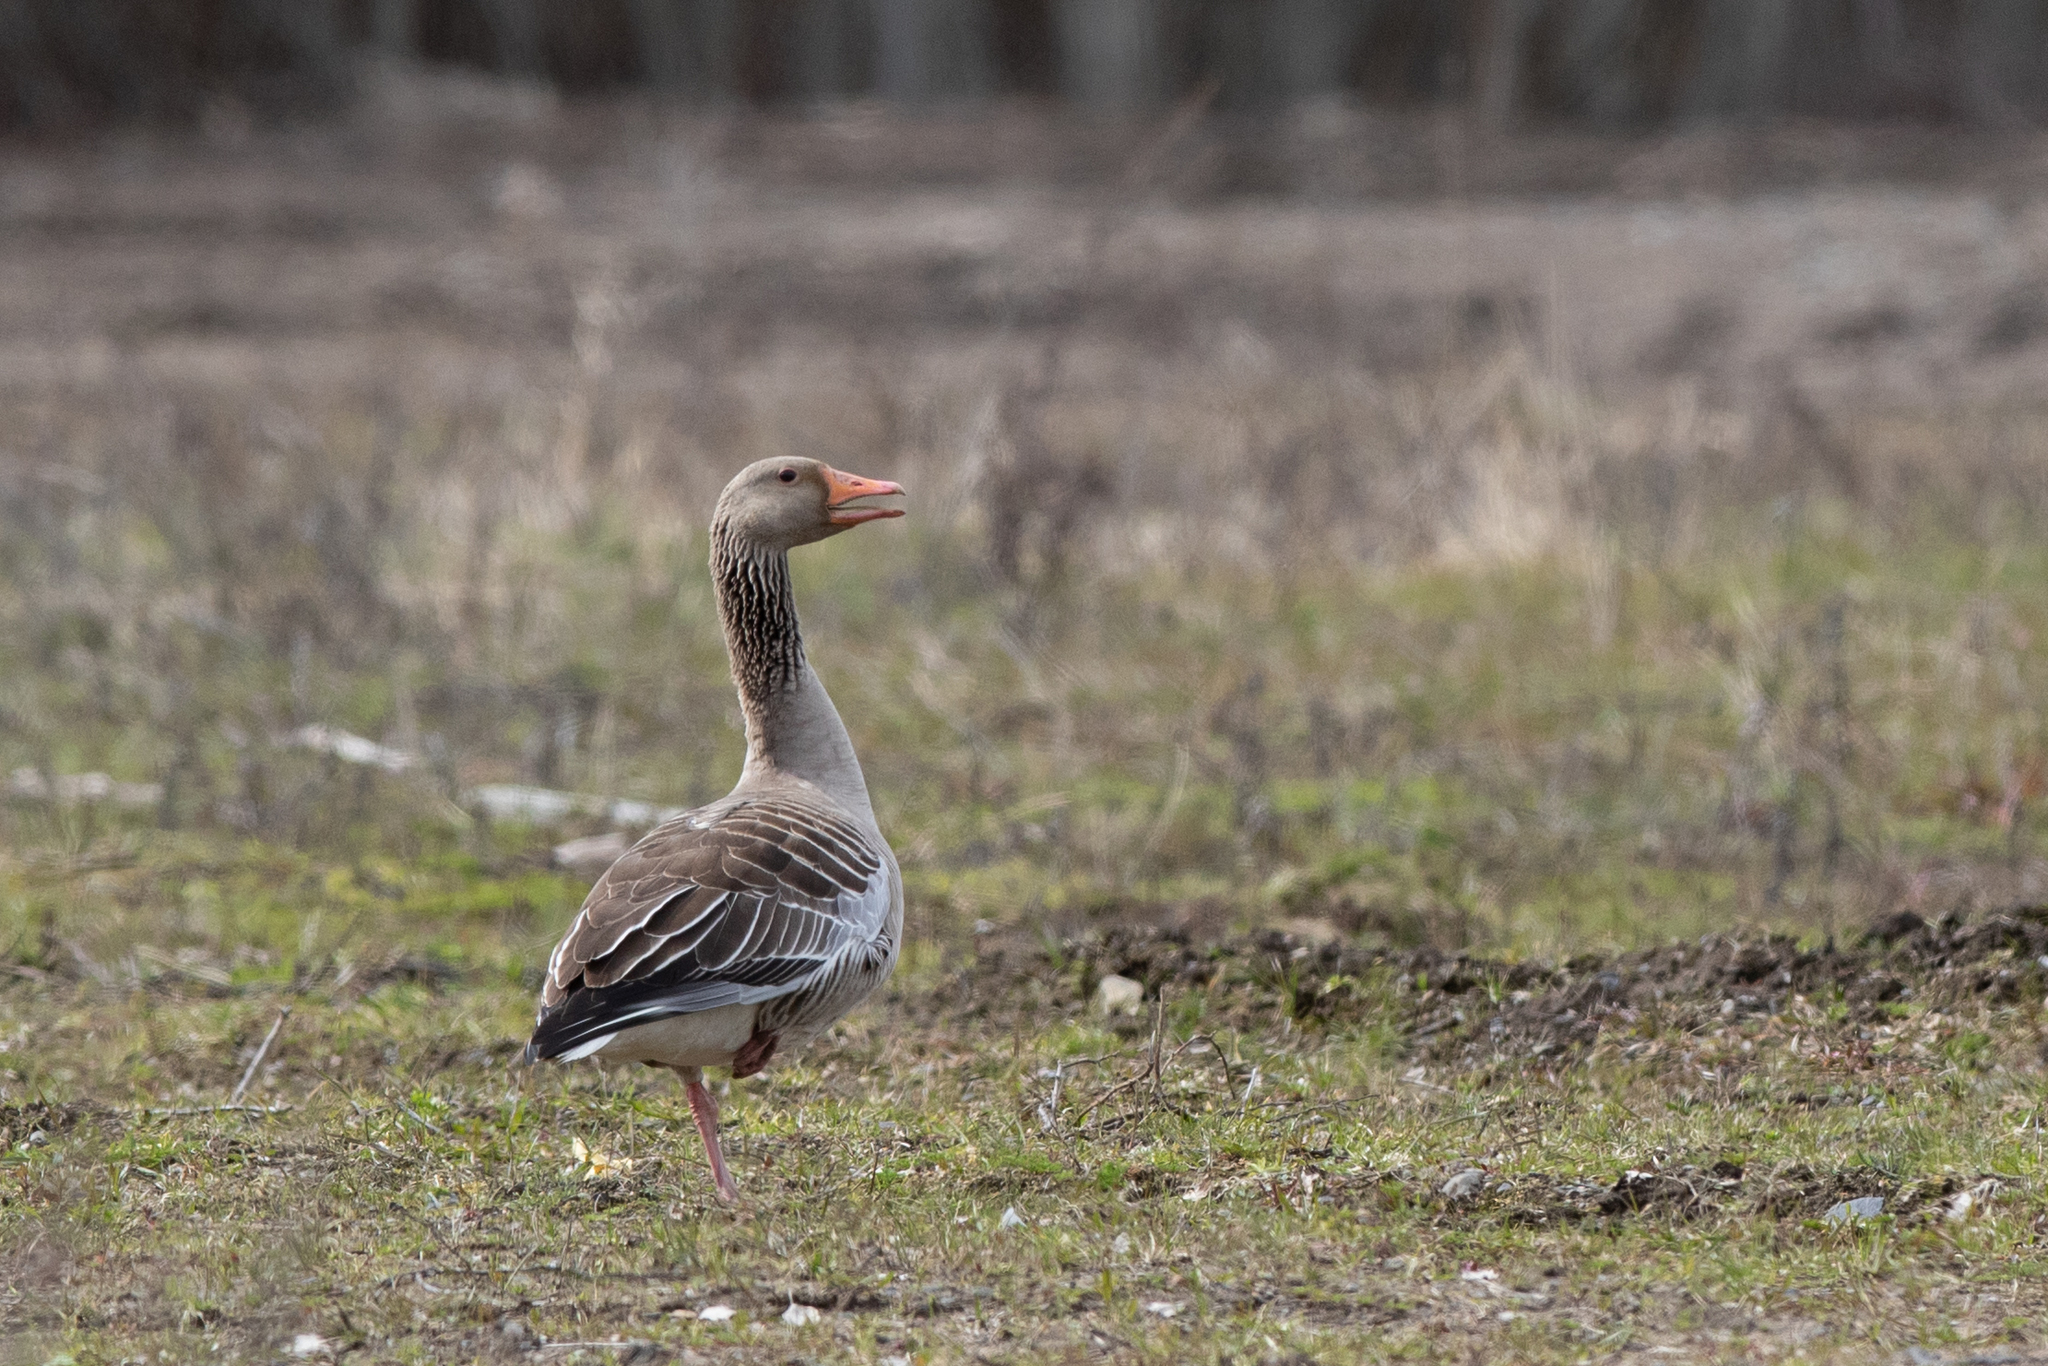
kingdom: Animalia
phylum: Chordata
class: Aves
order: Anseriformes
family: Anatidae
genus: Anser
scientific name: Anser anser
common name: Greylag goose
